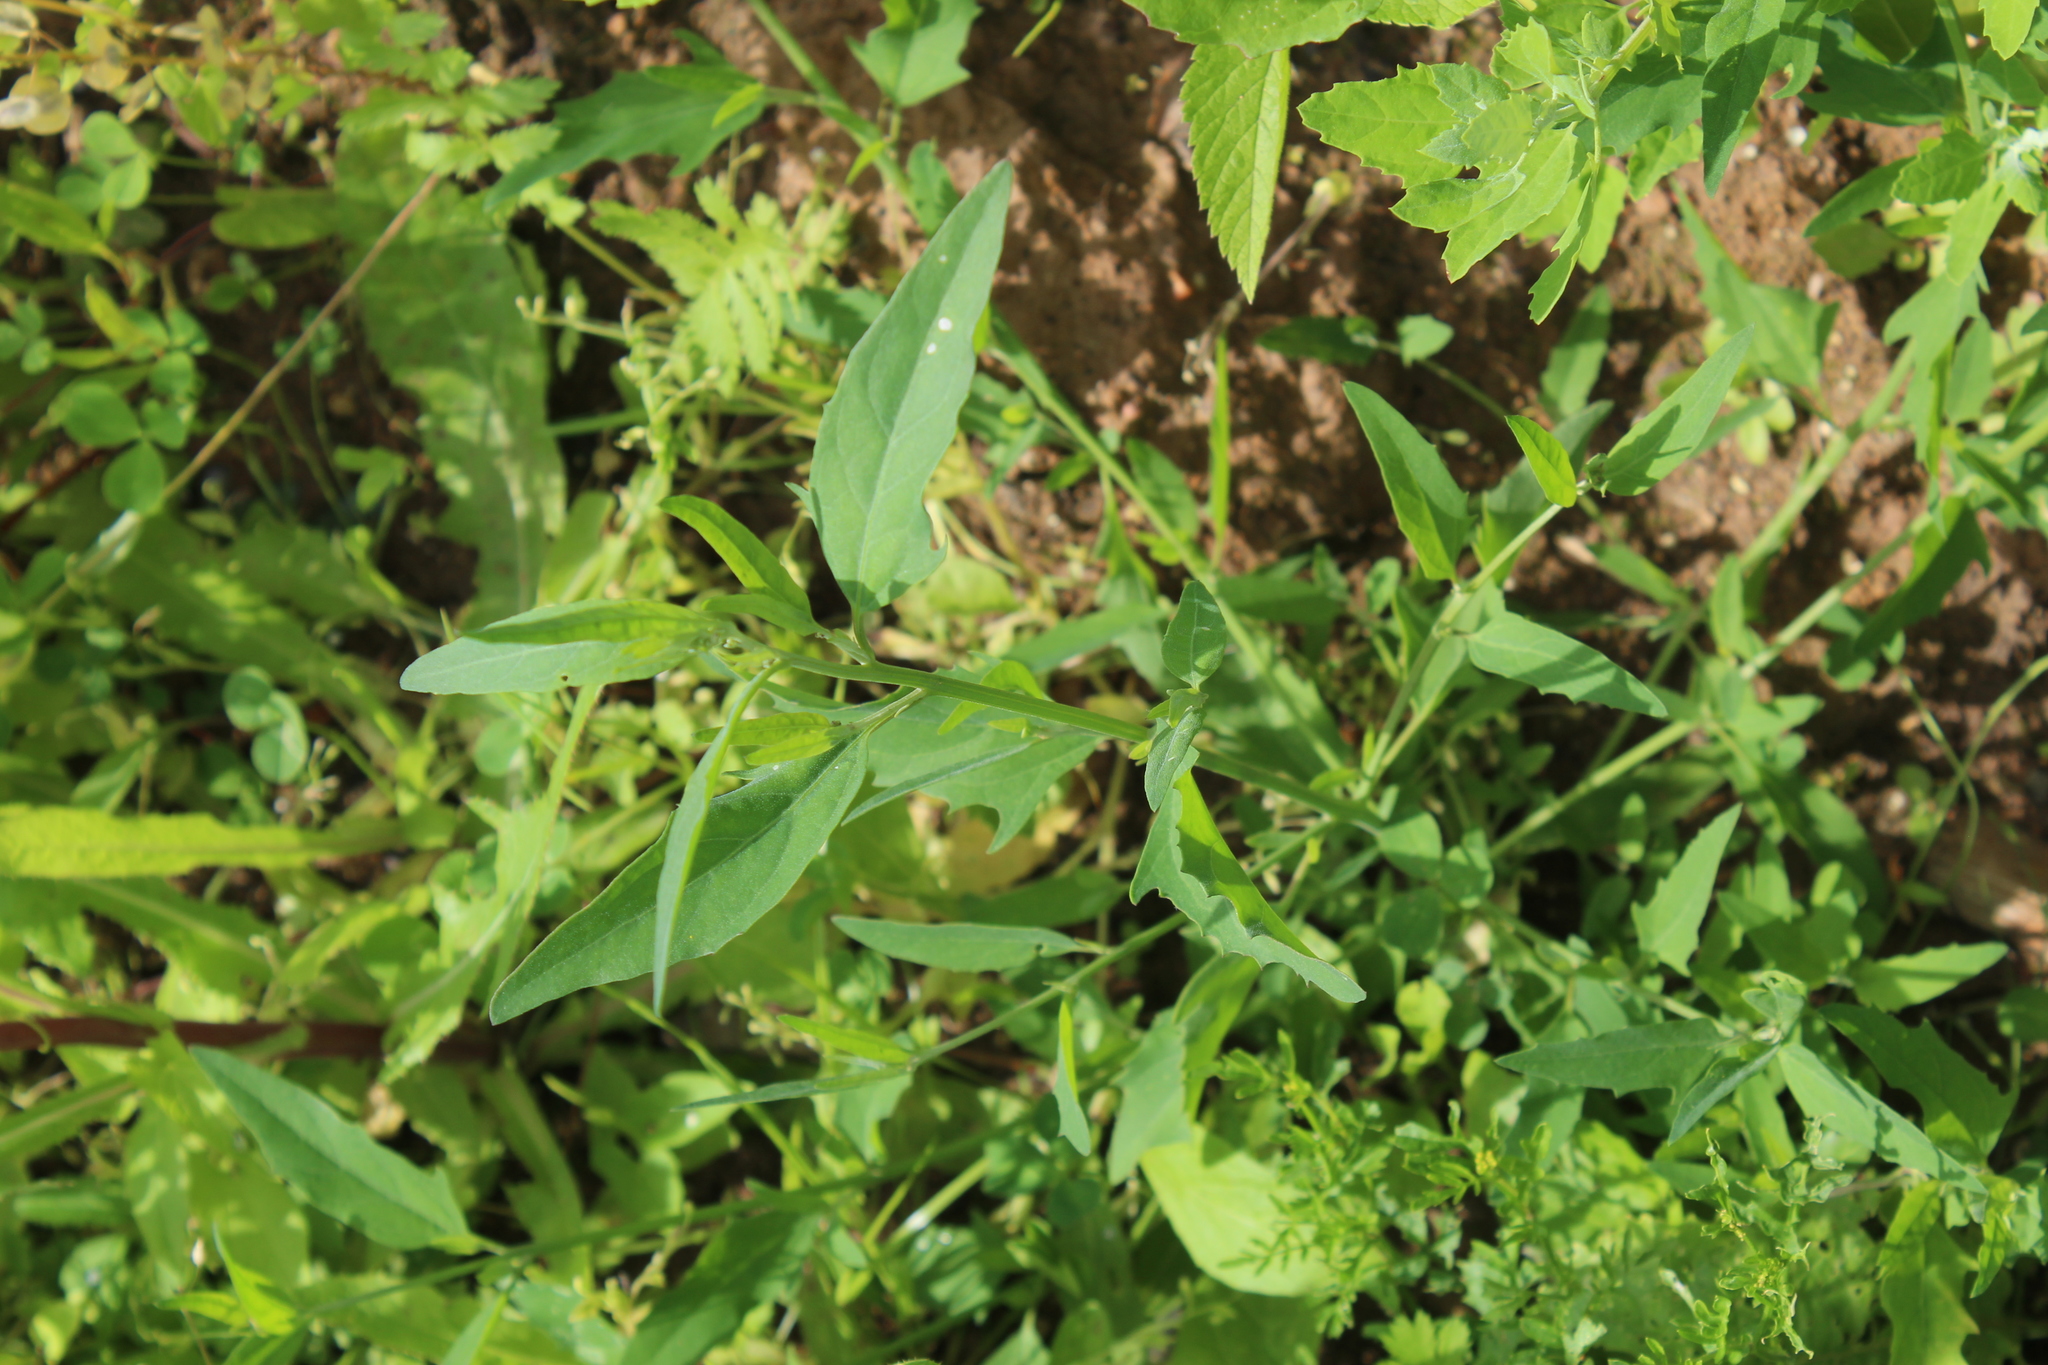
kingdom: Plantae
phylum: Tracheophyta
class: Magnoliopsida
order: Caryophyllales
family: Amaranthaceae
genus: Atriplex
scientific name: Atriplex patula
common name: Common orache
